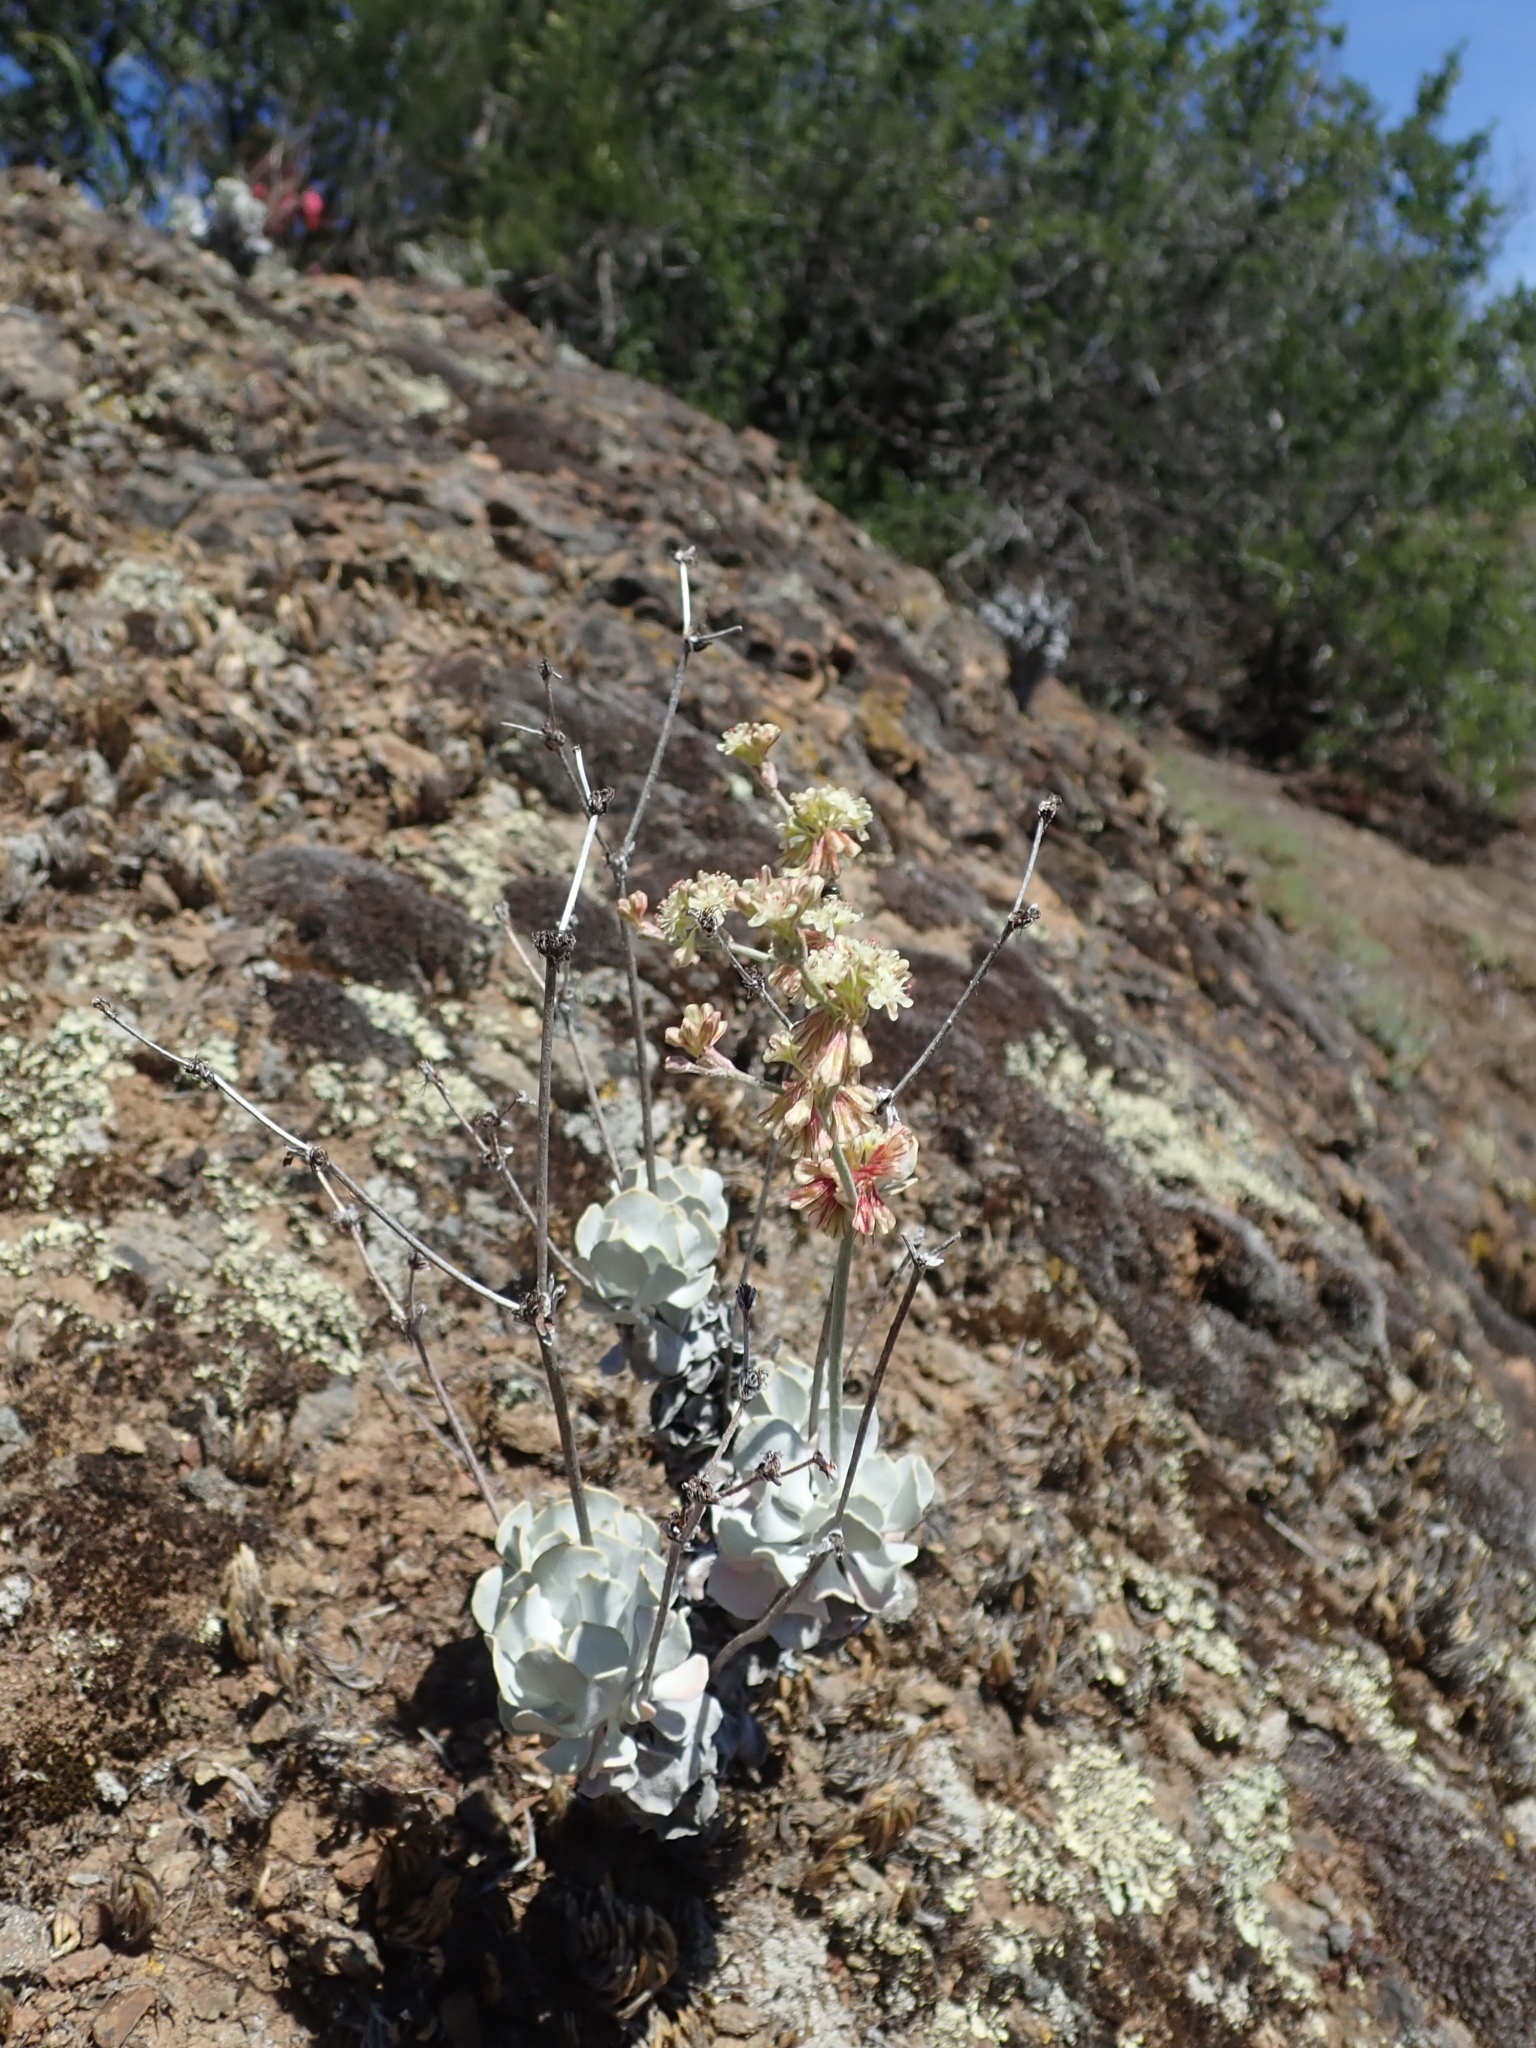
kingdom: Plantae
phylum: Tracheophyta
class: Magnoliopsida
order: Caryophyllales
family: Polygonaceae
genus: Eriogonum
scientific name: Eriogonum saxatile
